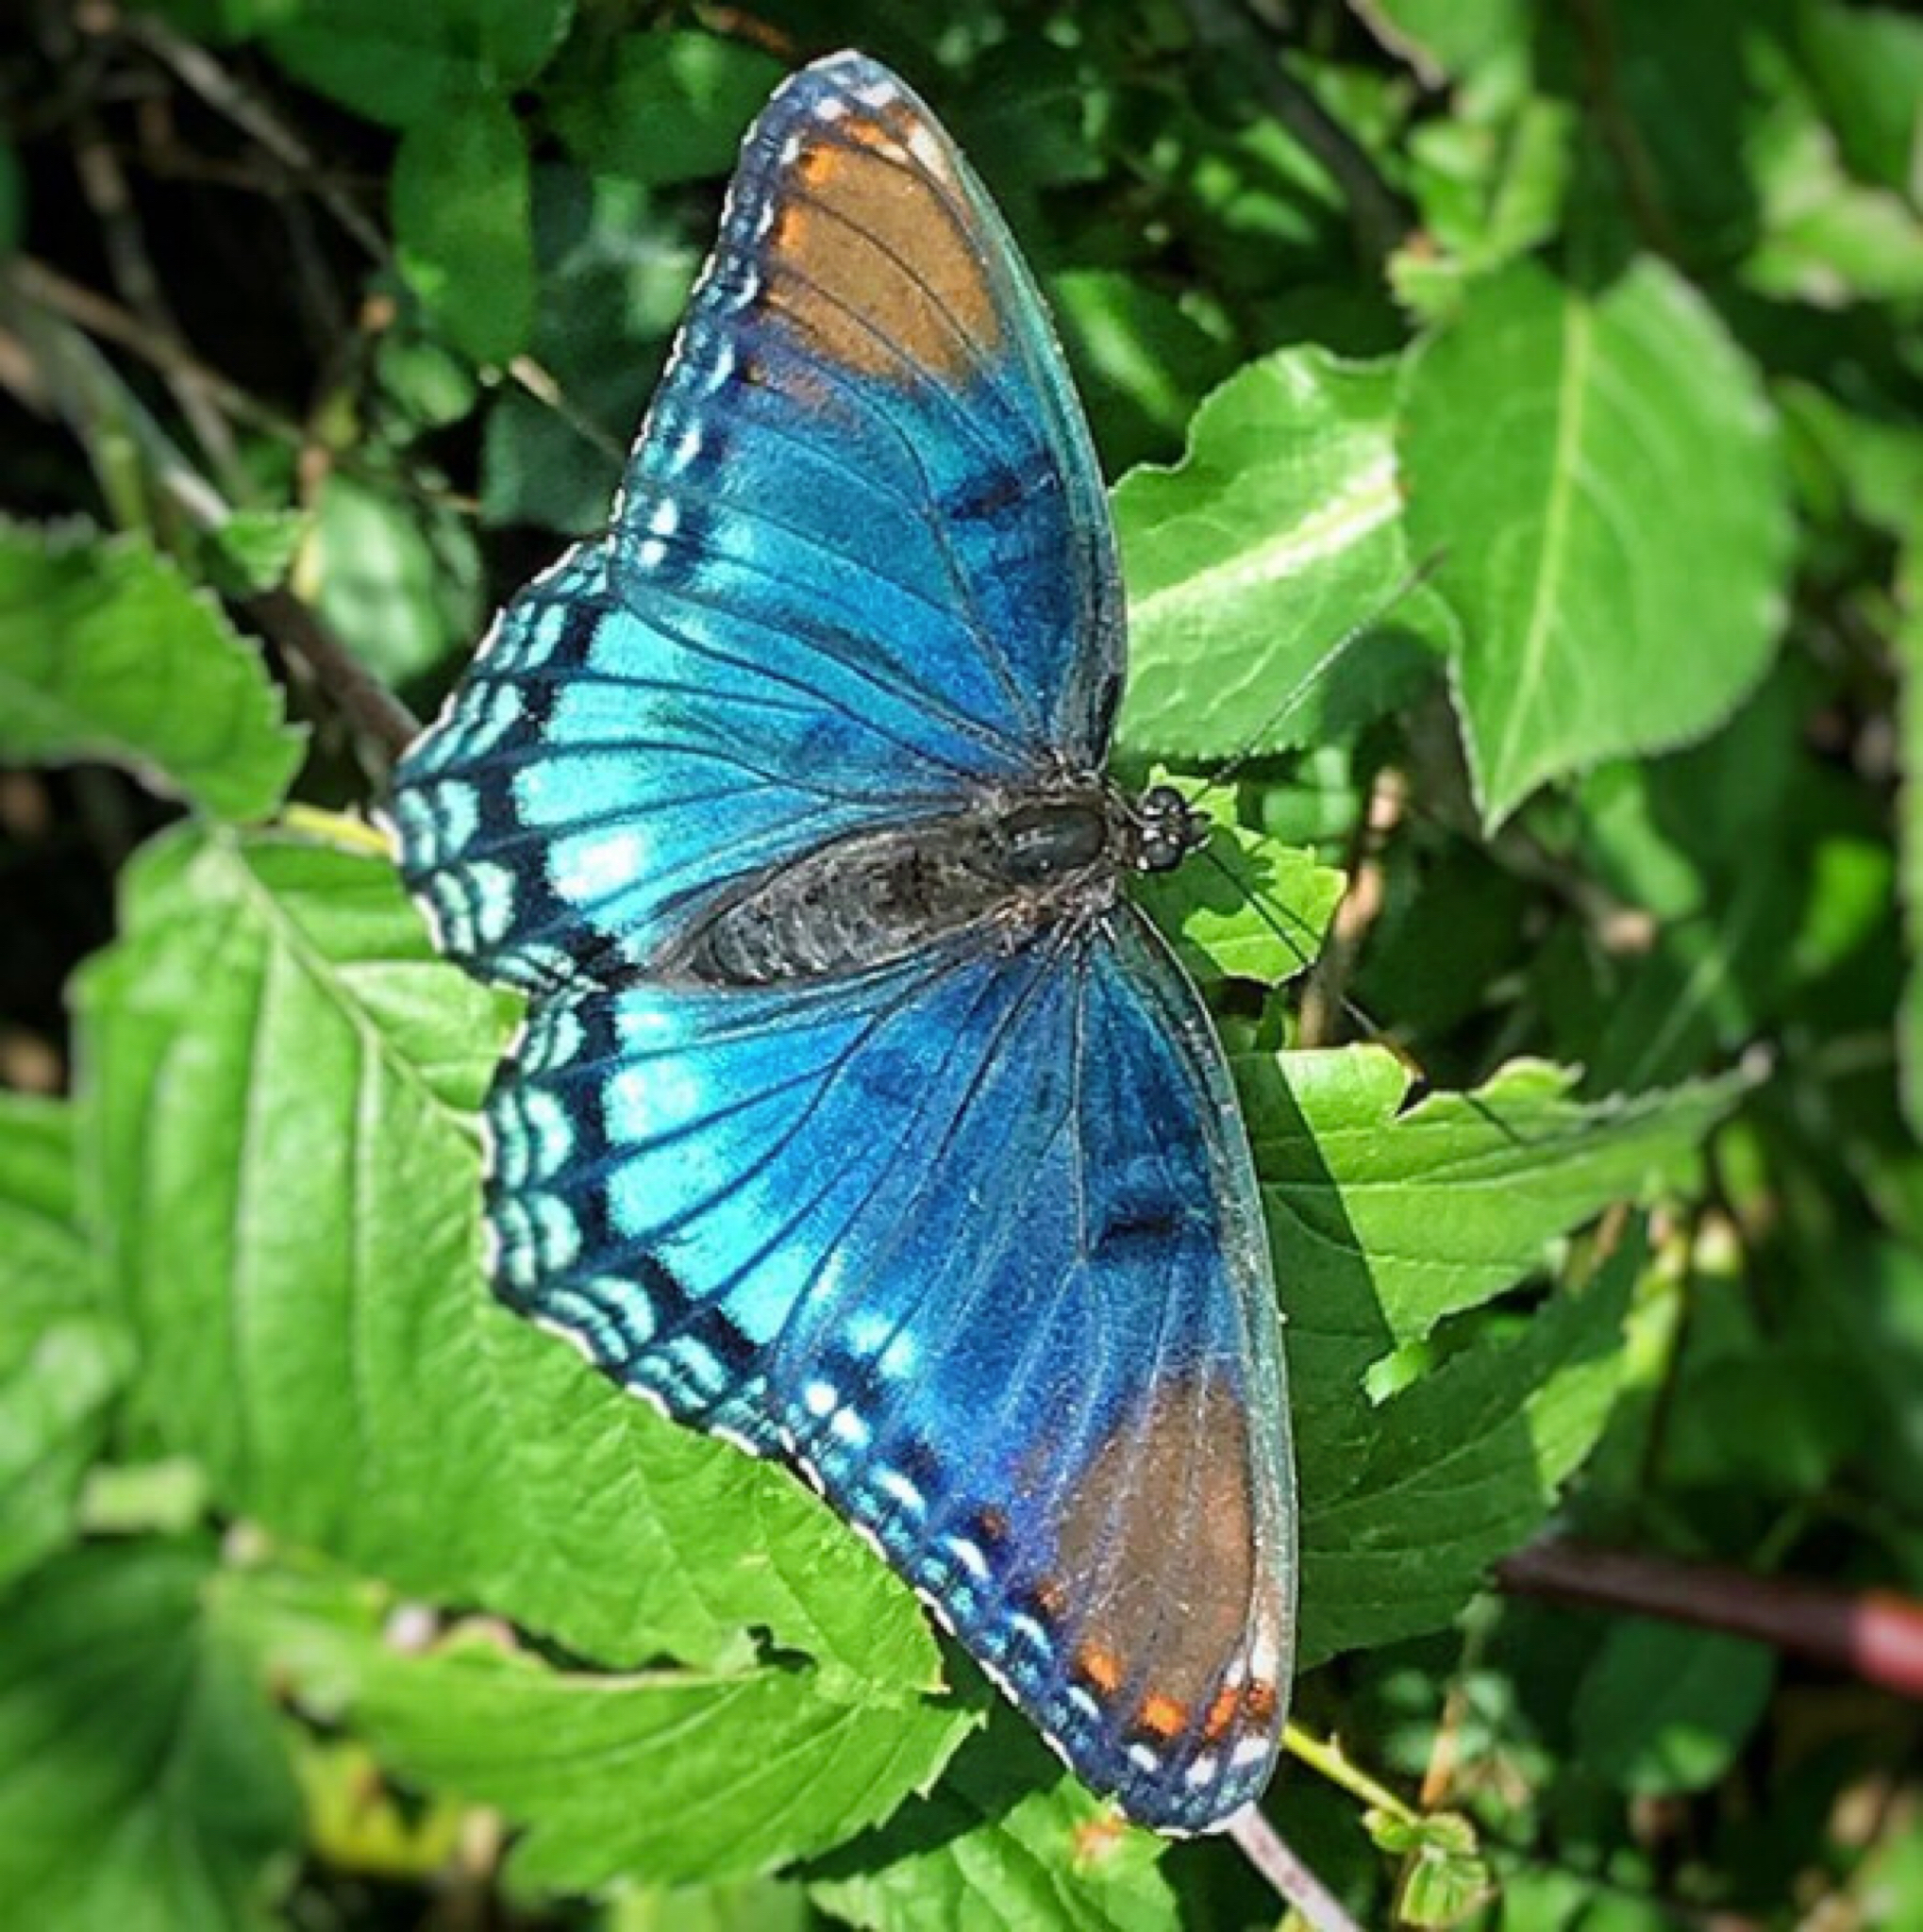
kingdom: Animalia
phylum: Arthropoda
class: Insecta
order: Lepidoptera
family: Nymphalidae
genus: Limenitis
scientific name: Limenitis astyanax
